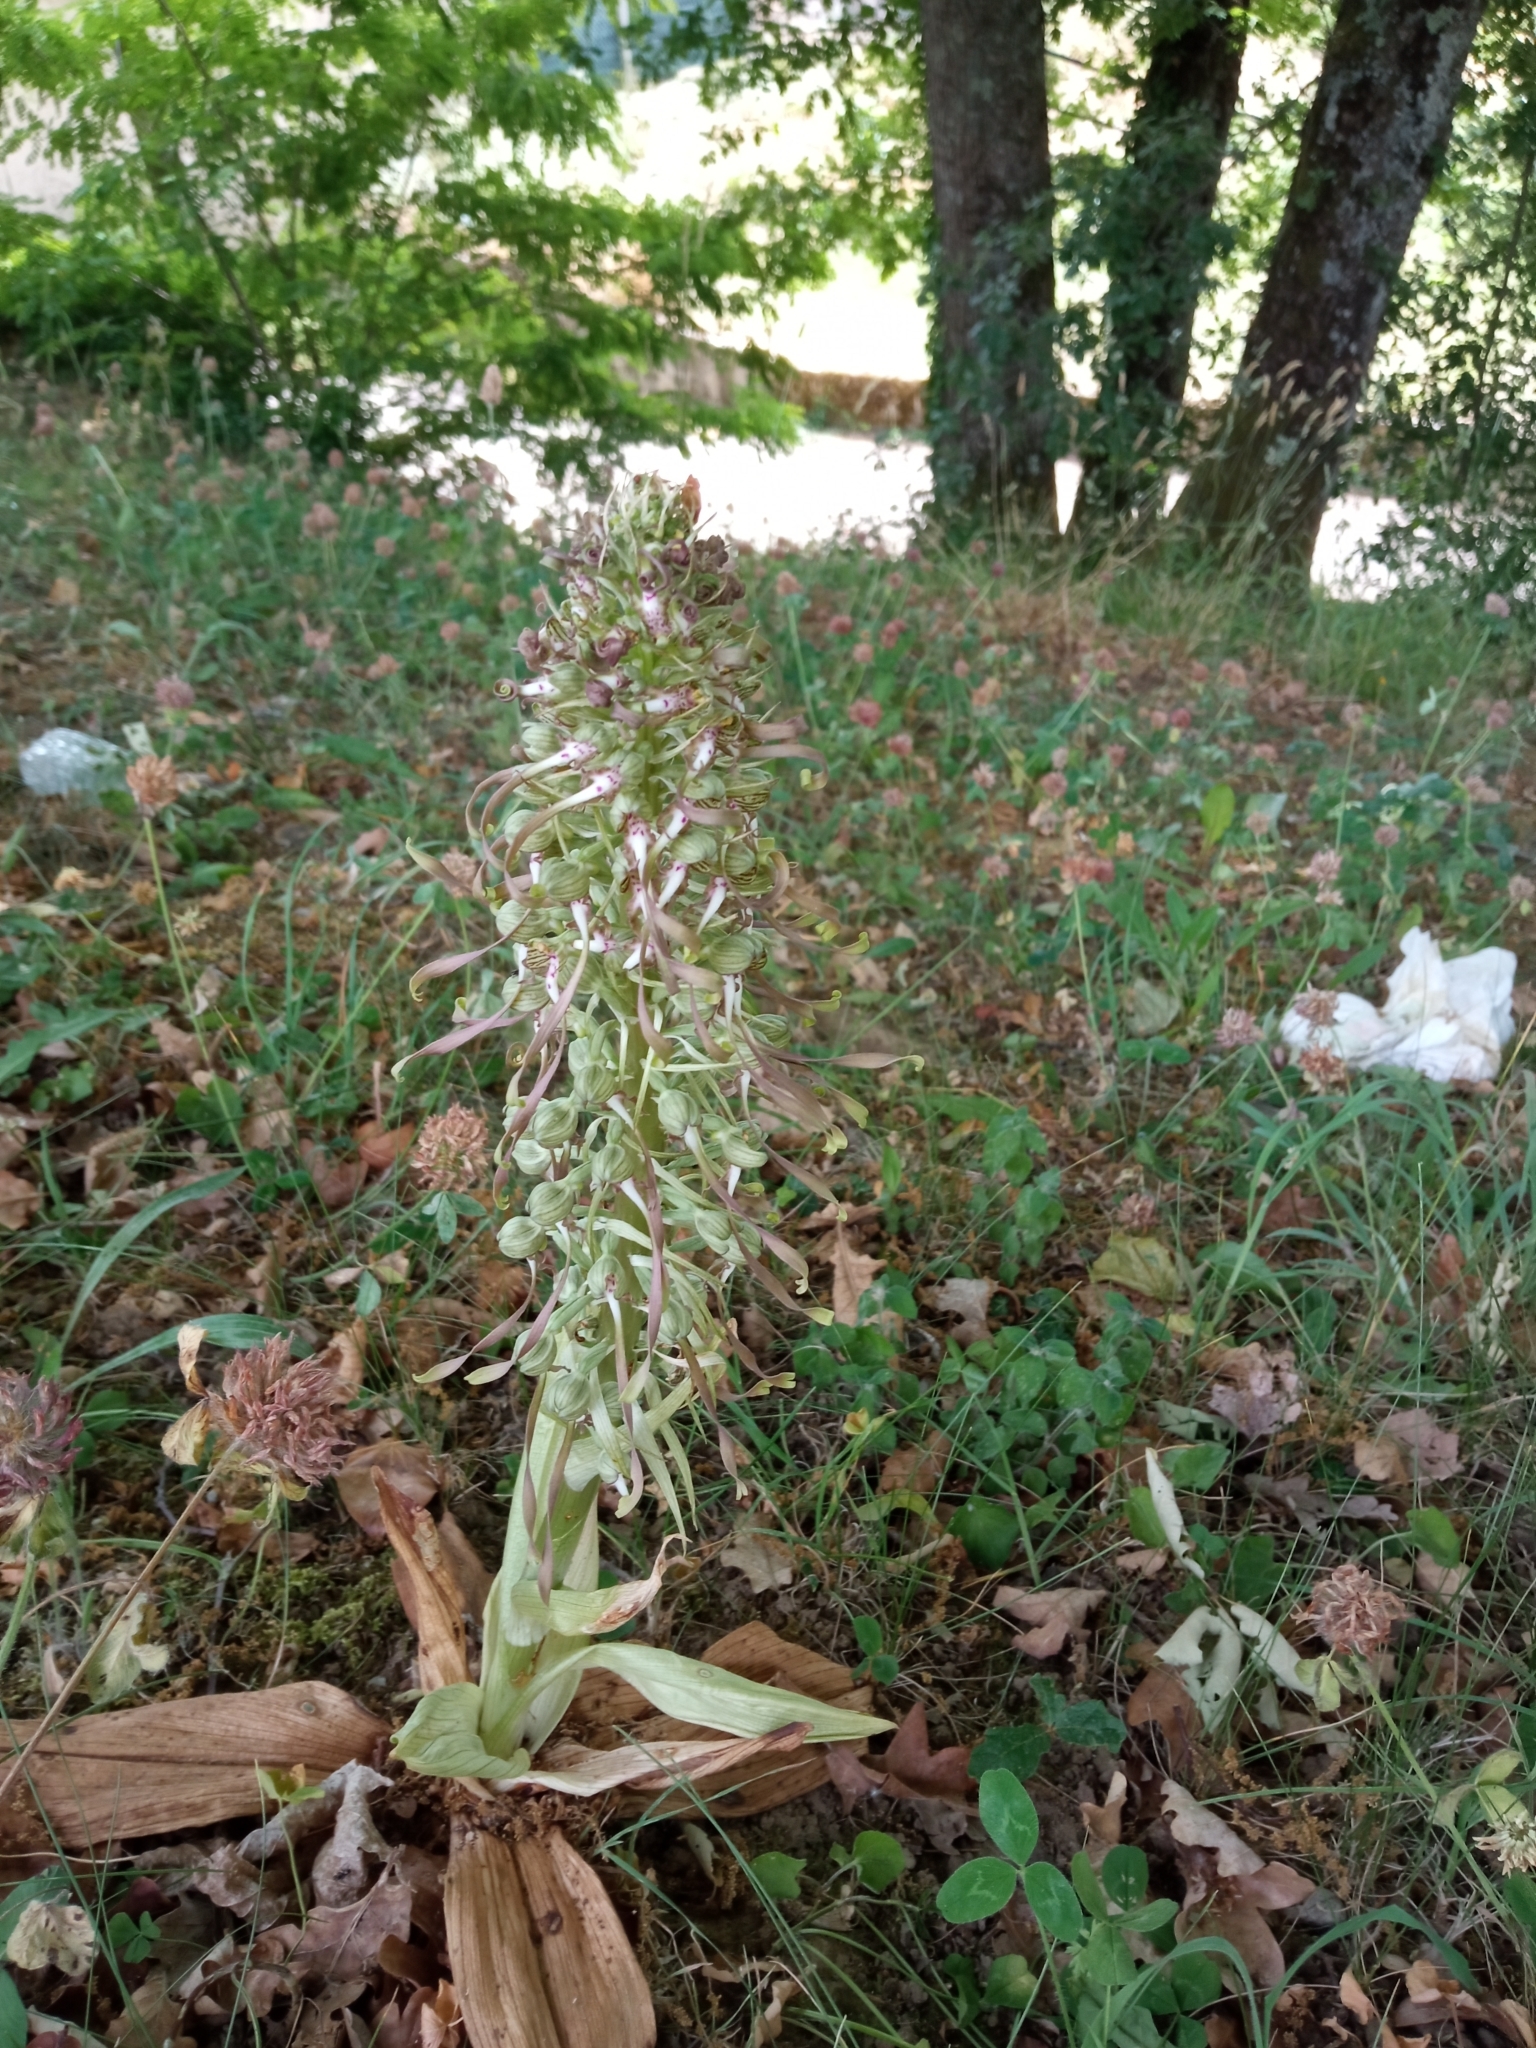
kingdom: Plantae
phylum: Tracheophyta
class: Liliopsida
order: Asparagales
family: Orchidaceae
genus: Himantoglossum
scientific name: Himantoglossum hircinum
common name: Lizard orchid
